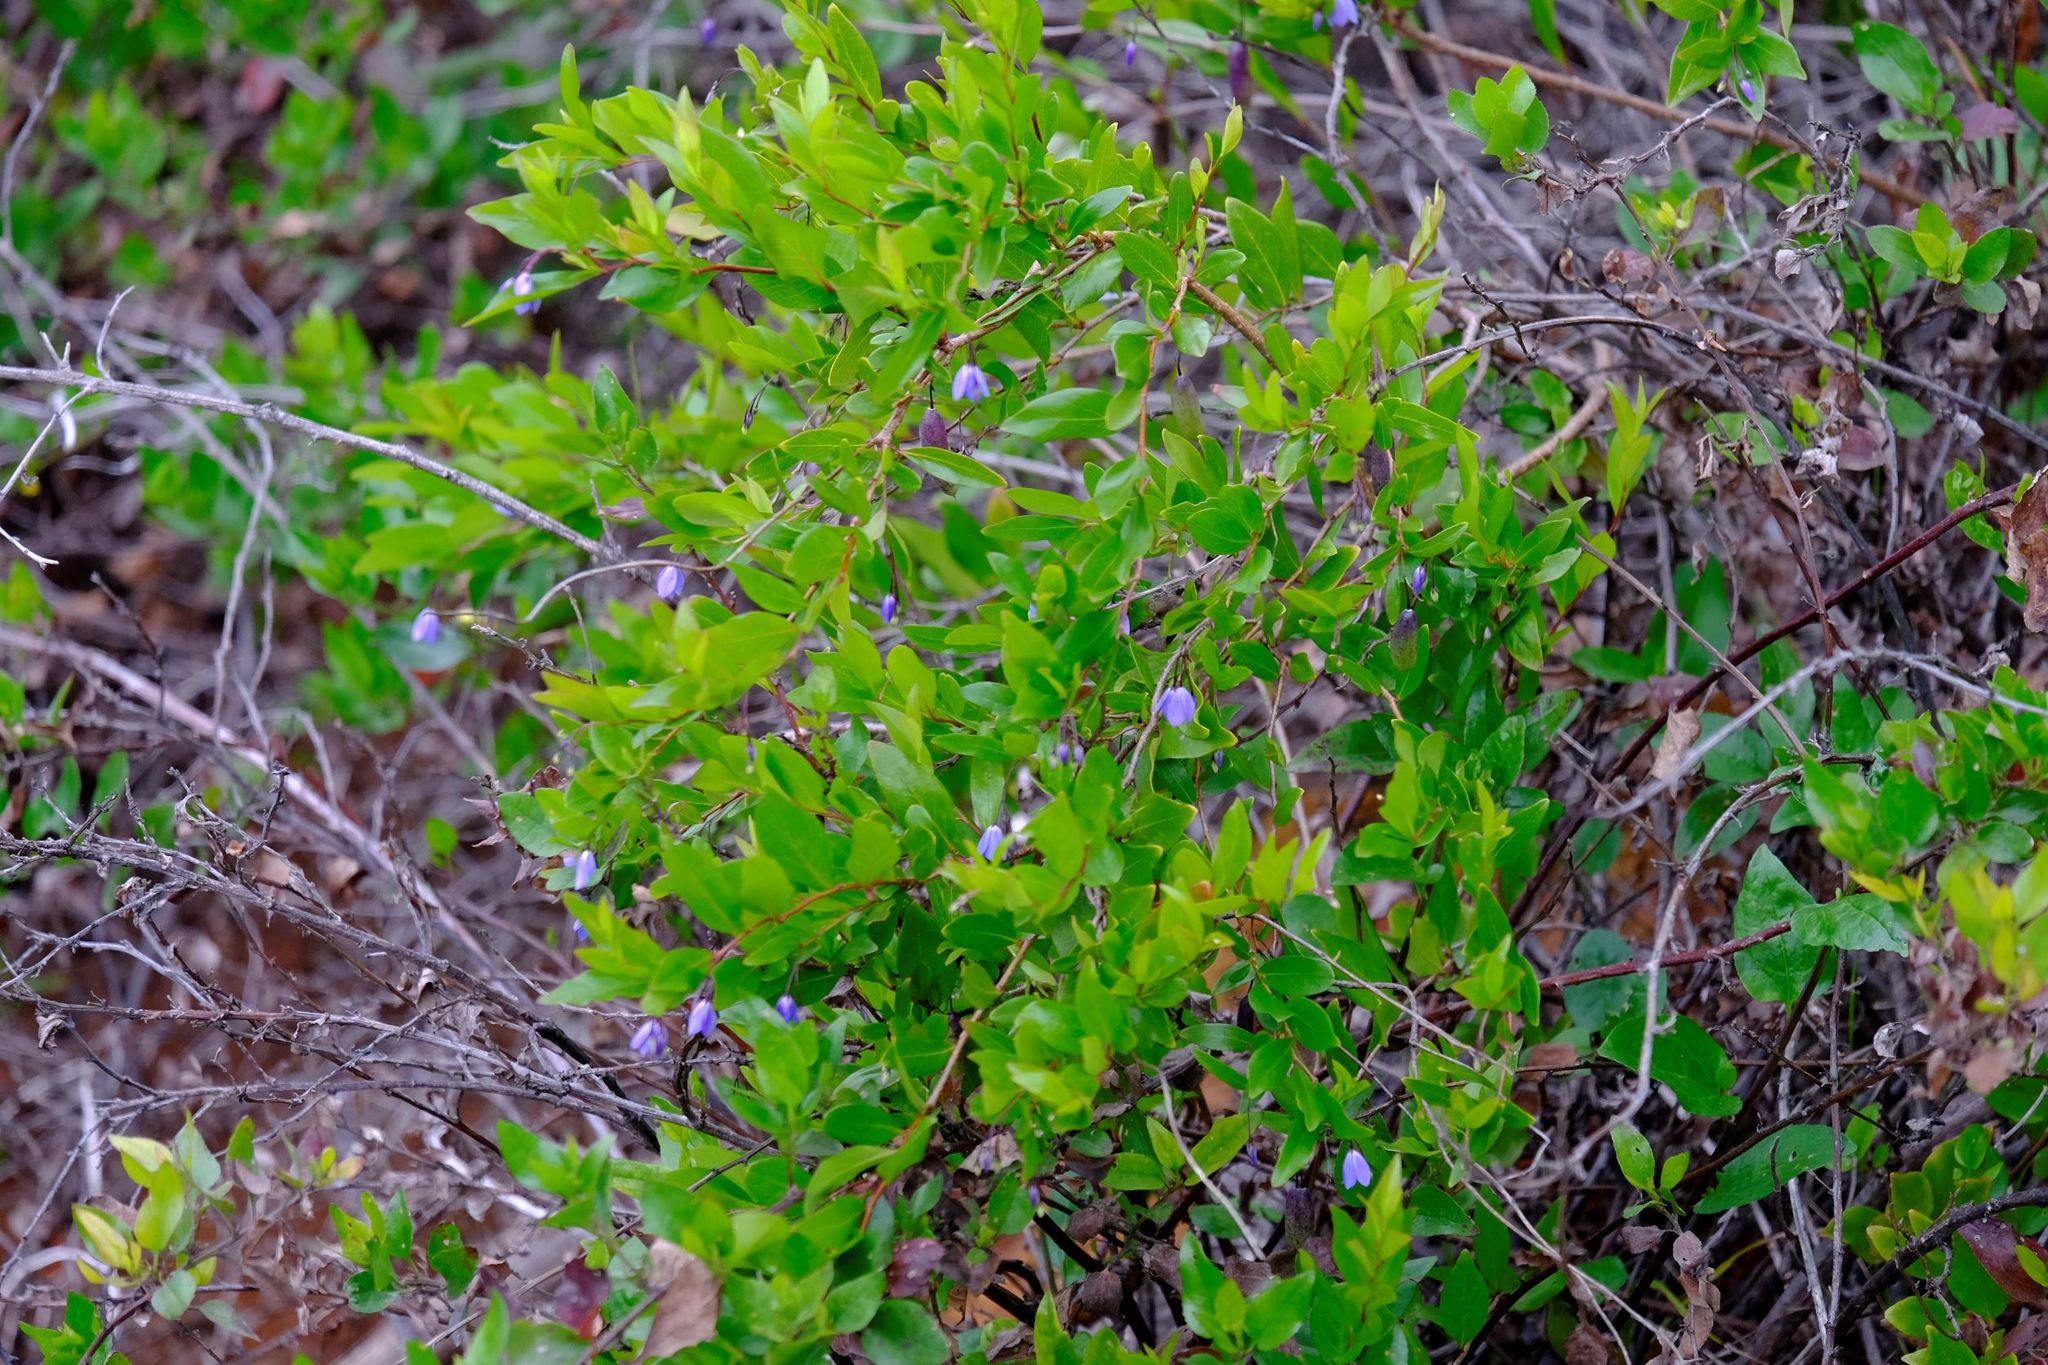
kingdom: Plantae
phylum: Tracheophyta
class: Magnoliopsida
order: Apiales
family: Pittosporaceae
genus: Billardiera
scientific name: Billardiera fusiformis
